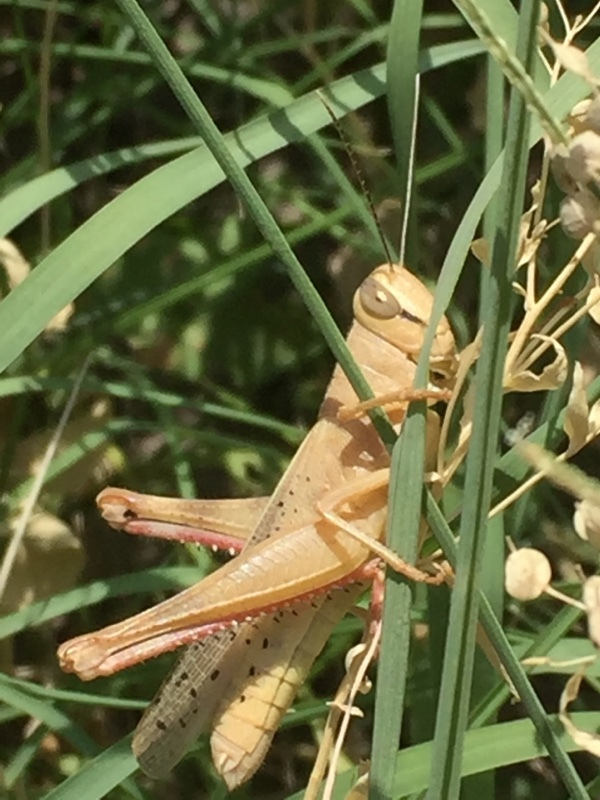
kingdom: Animalia
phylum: Arthropoda
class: Insecta
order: Orthoptera
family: Acrididae
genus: Heteracris
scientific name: Heteracris pterosticha
